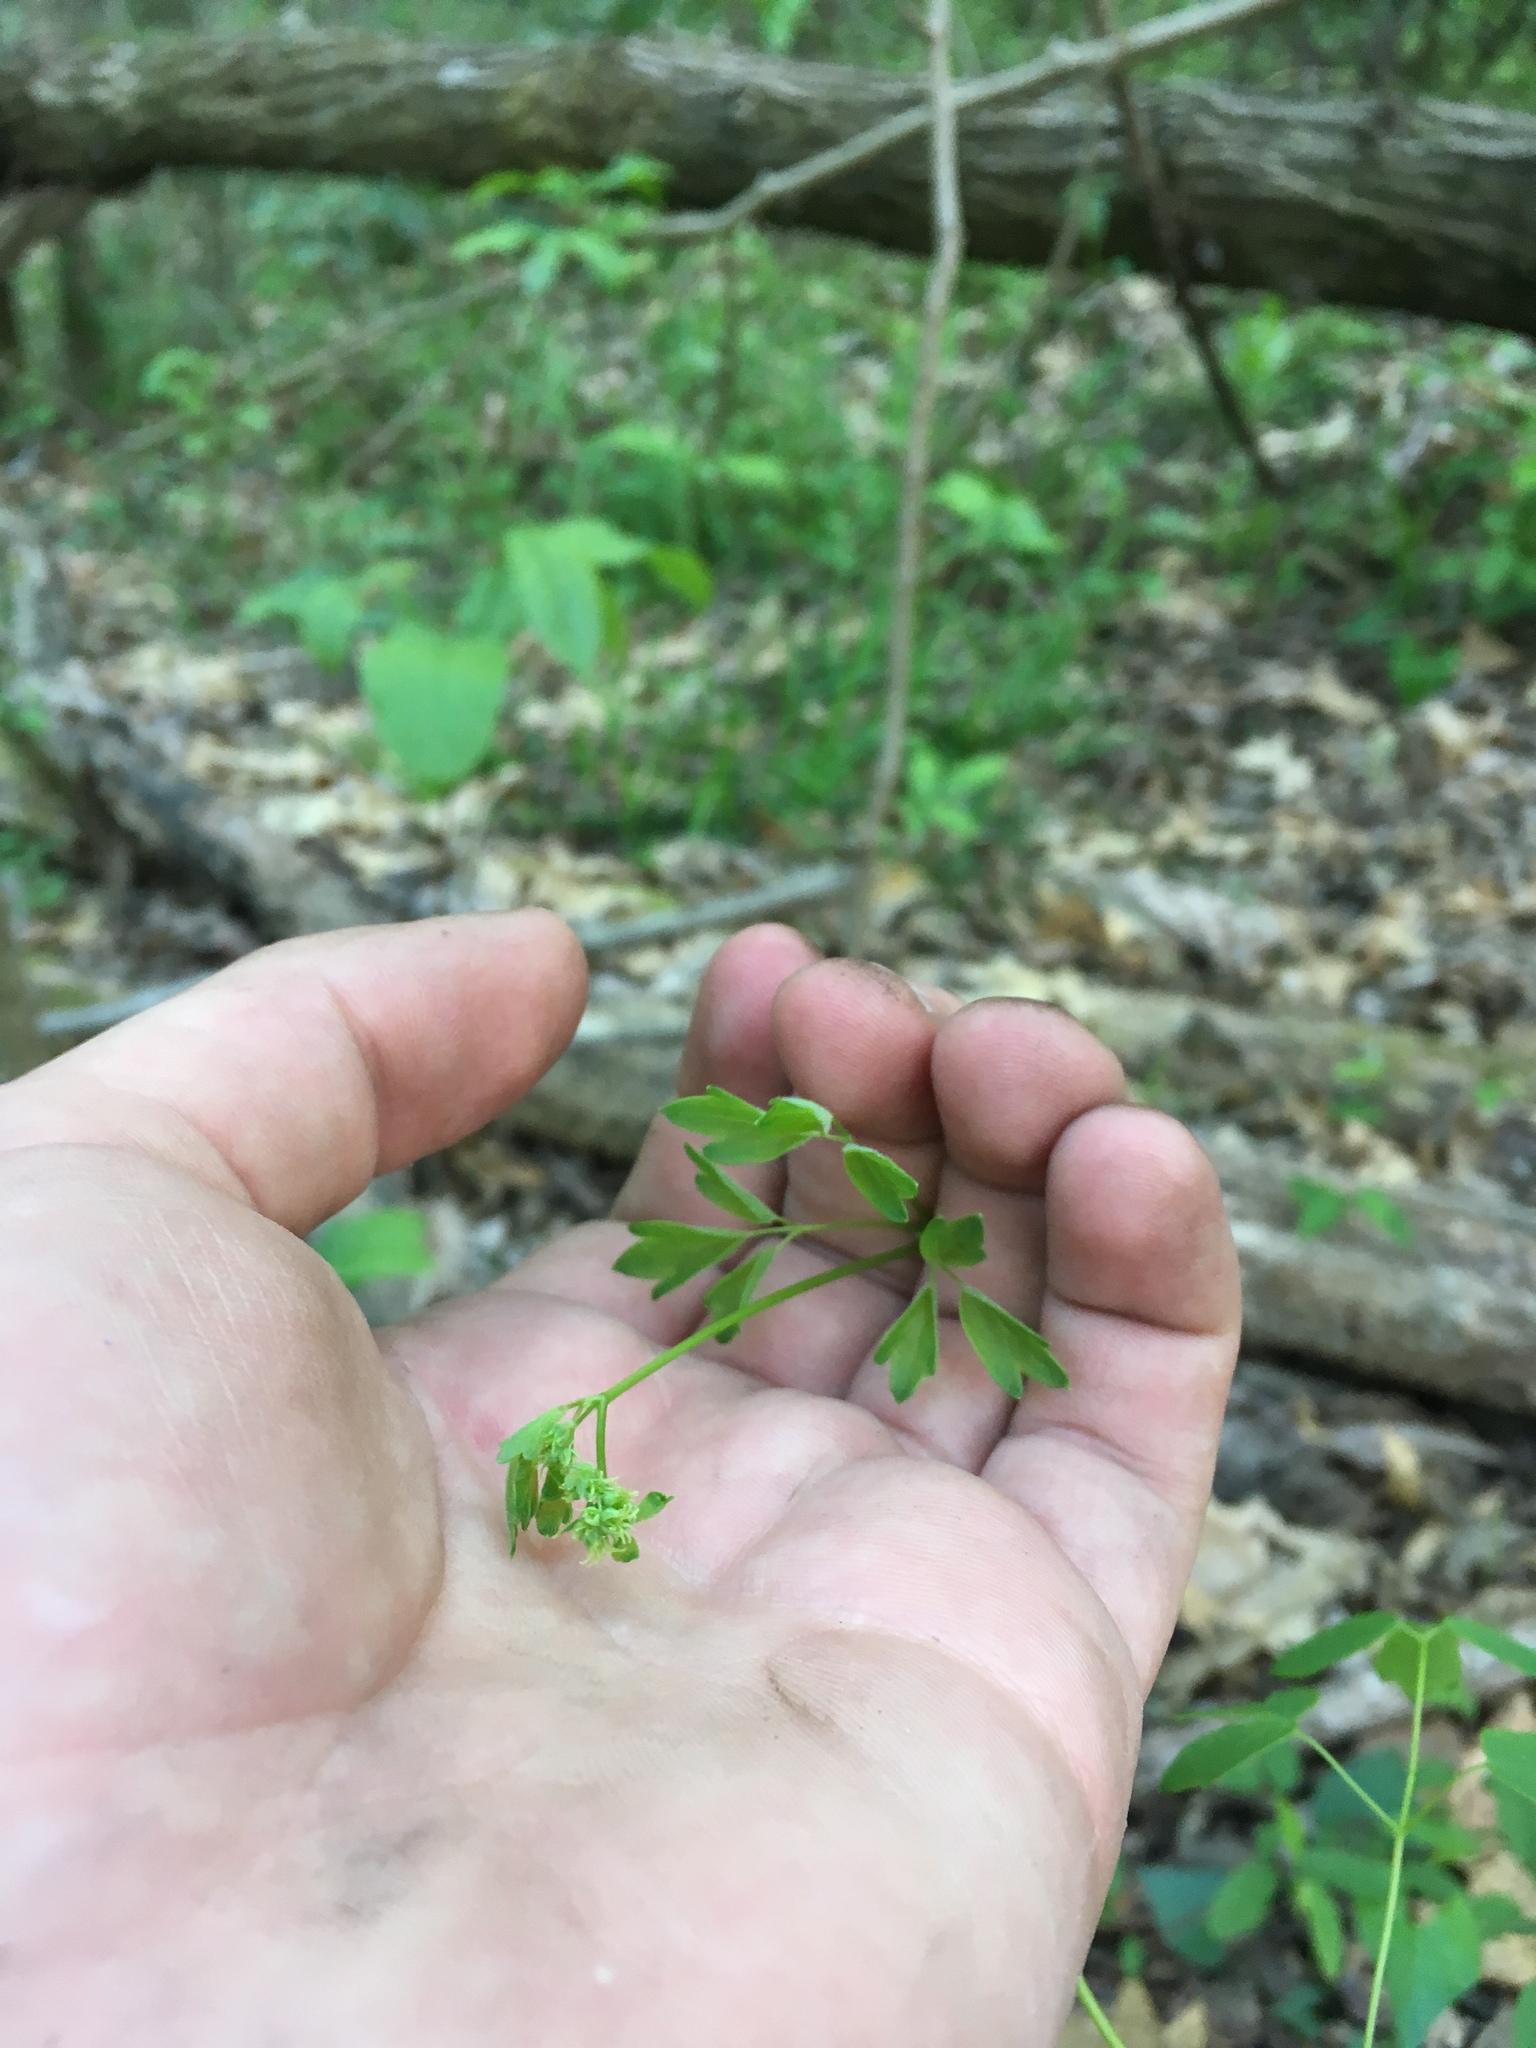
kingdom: Plantae
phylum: Tracheophyta
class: Magnoliopsida
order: Ranunculales
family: Ranunculaceae
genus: Thalictrum
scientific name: Thalictrum revolutum
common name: Waxy meadow-rue
